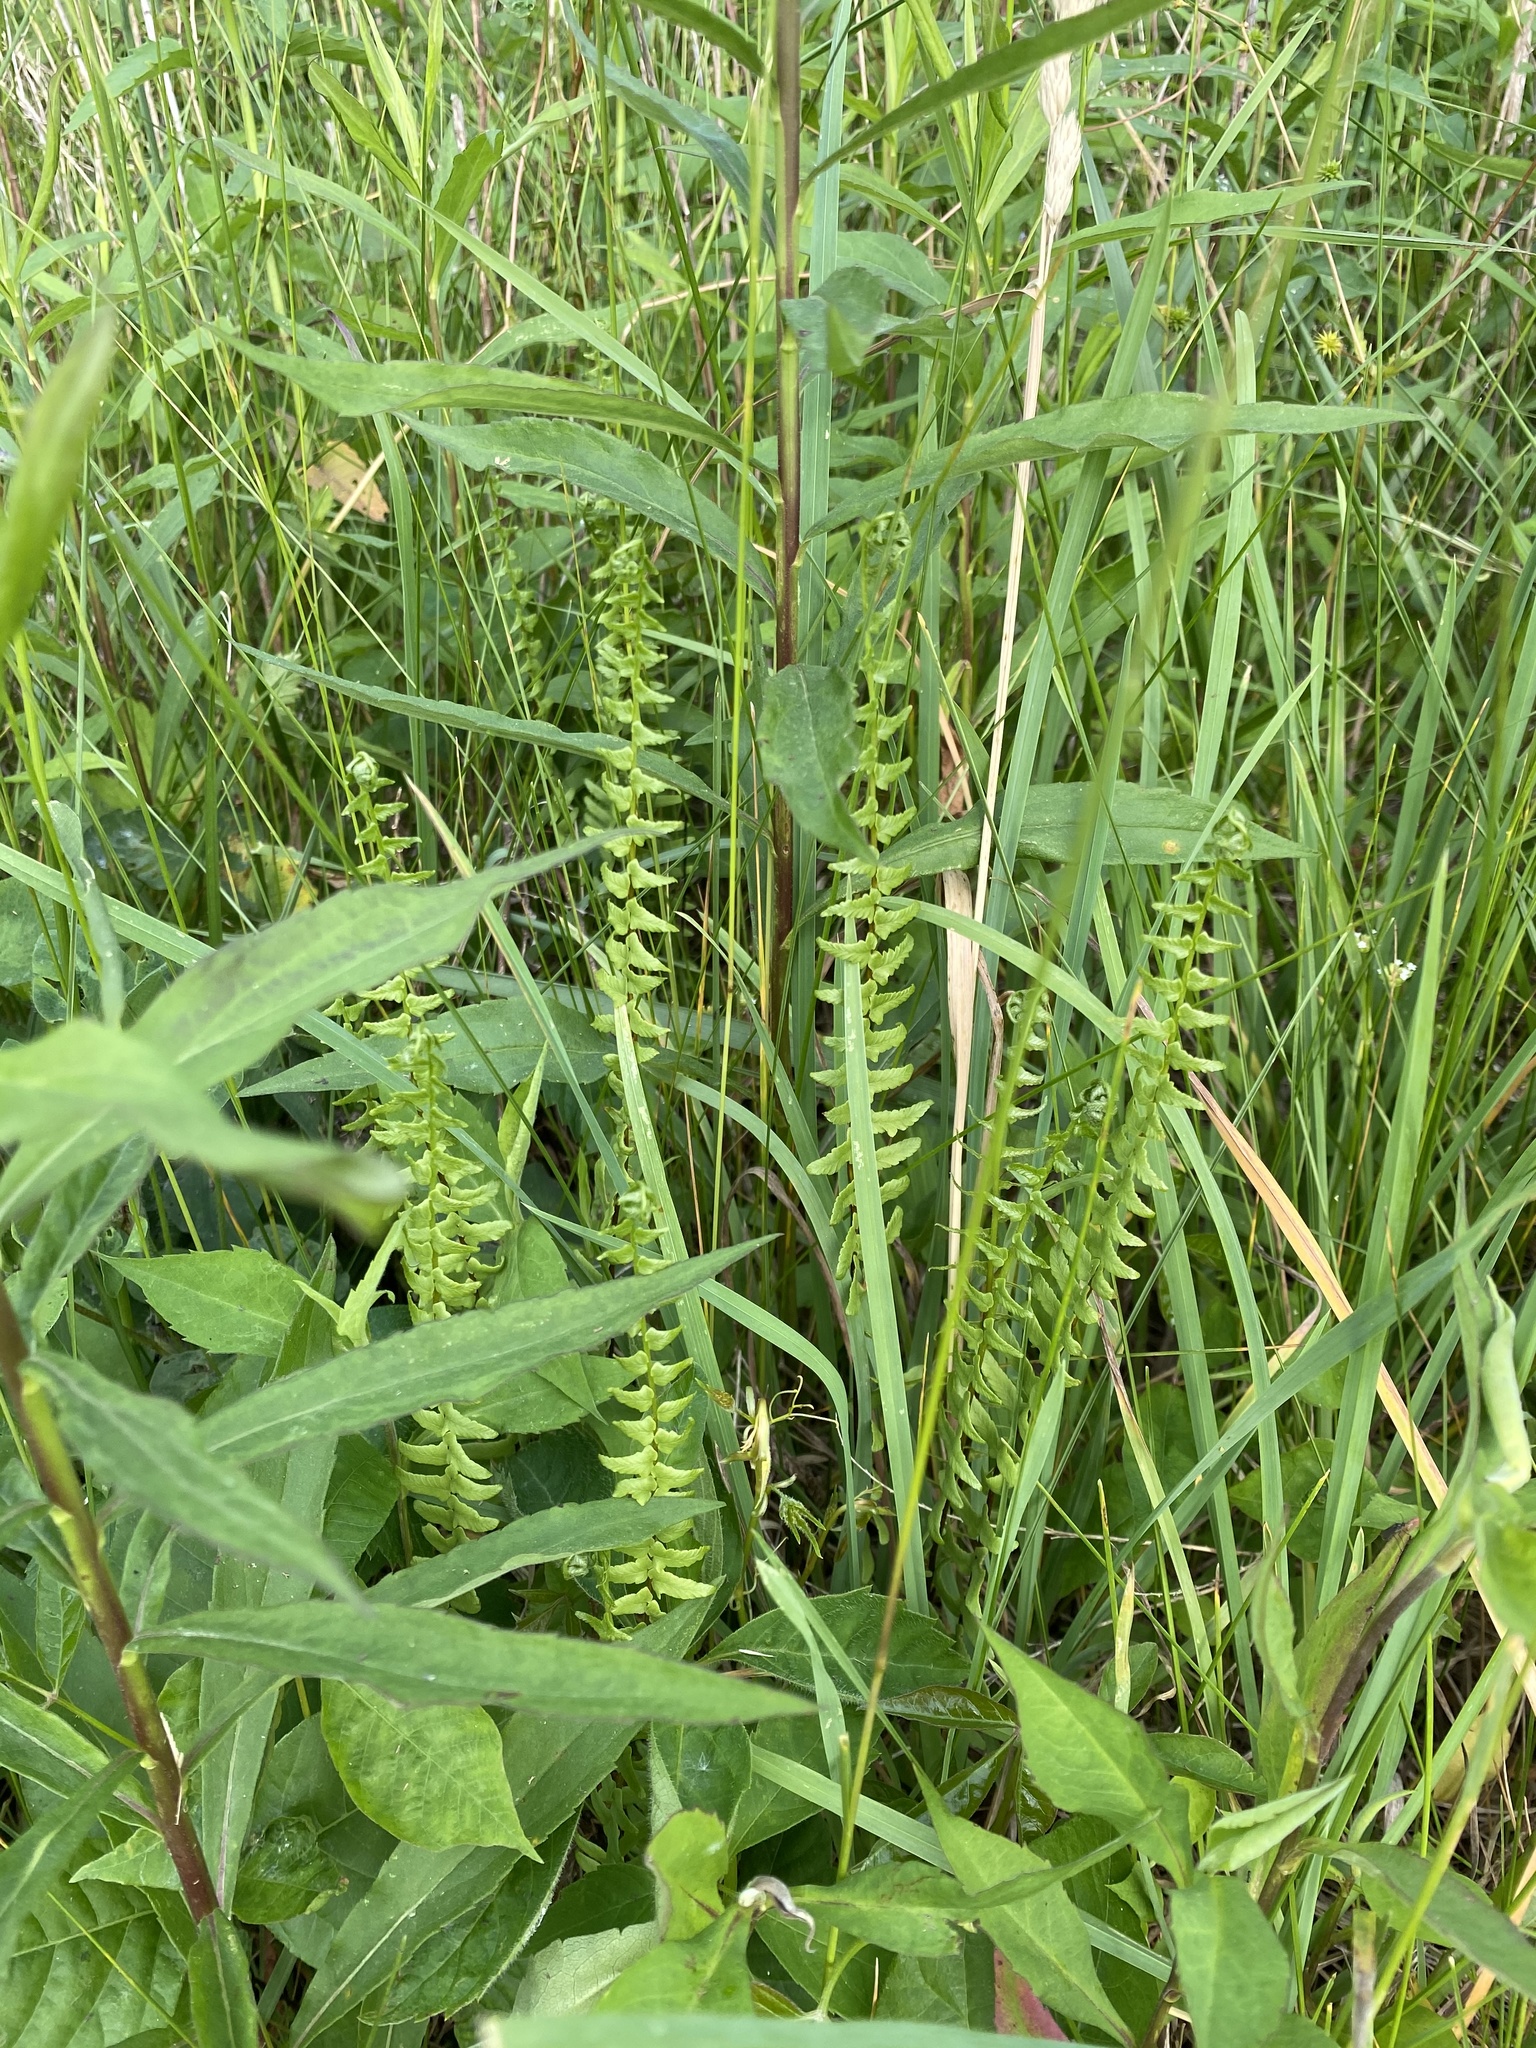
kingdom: Plantae
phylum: Tracheophyta
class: Polypodiopsida
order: Polypodiales
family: Aspleniaceae
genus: Asplenium
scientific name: Asplenium platyneuron
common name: Ebony spleenwort
